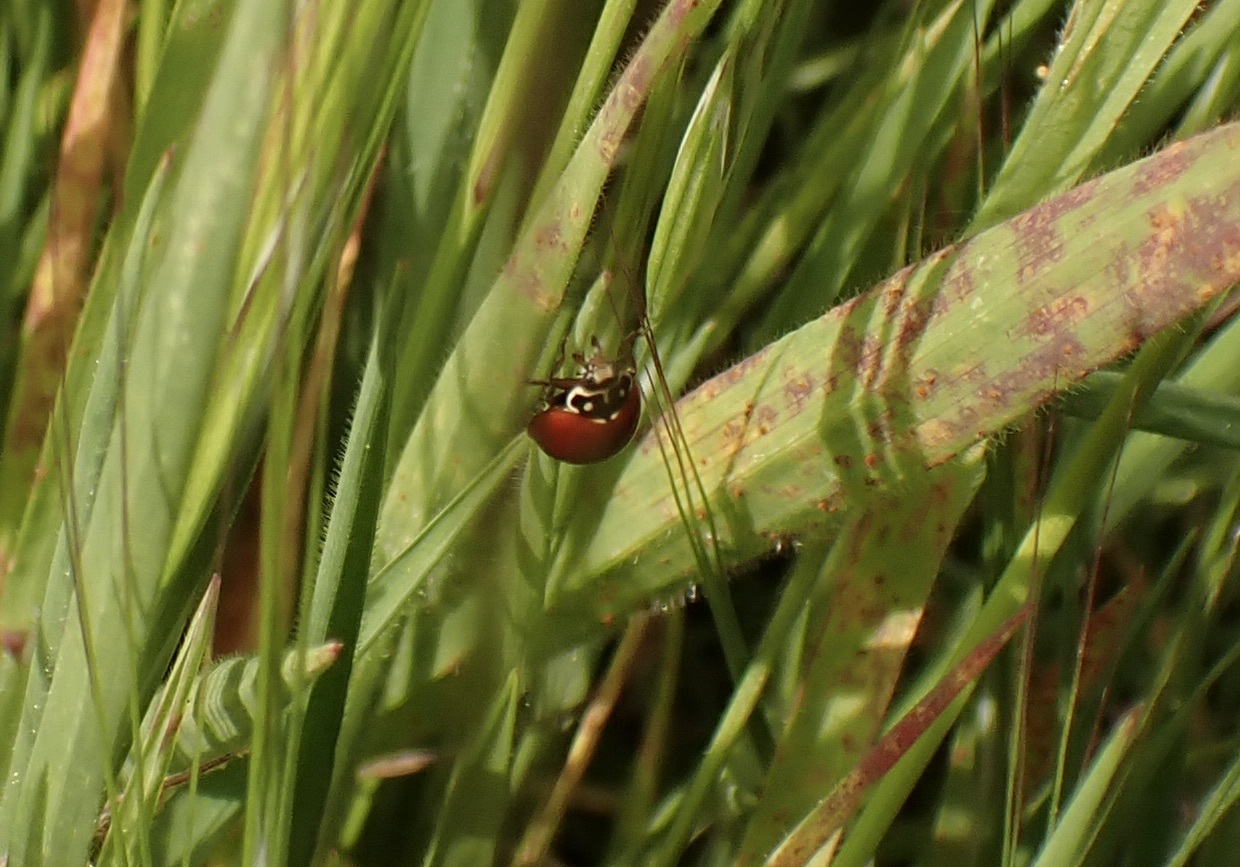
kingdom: Animalia
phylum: Arthropoda
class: Insecta
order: Coleoptera
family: Coccinellidae
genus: Cycloneda
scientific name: Cycloneda sanguinea
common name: Ladybird beetle
